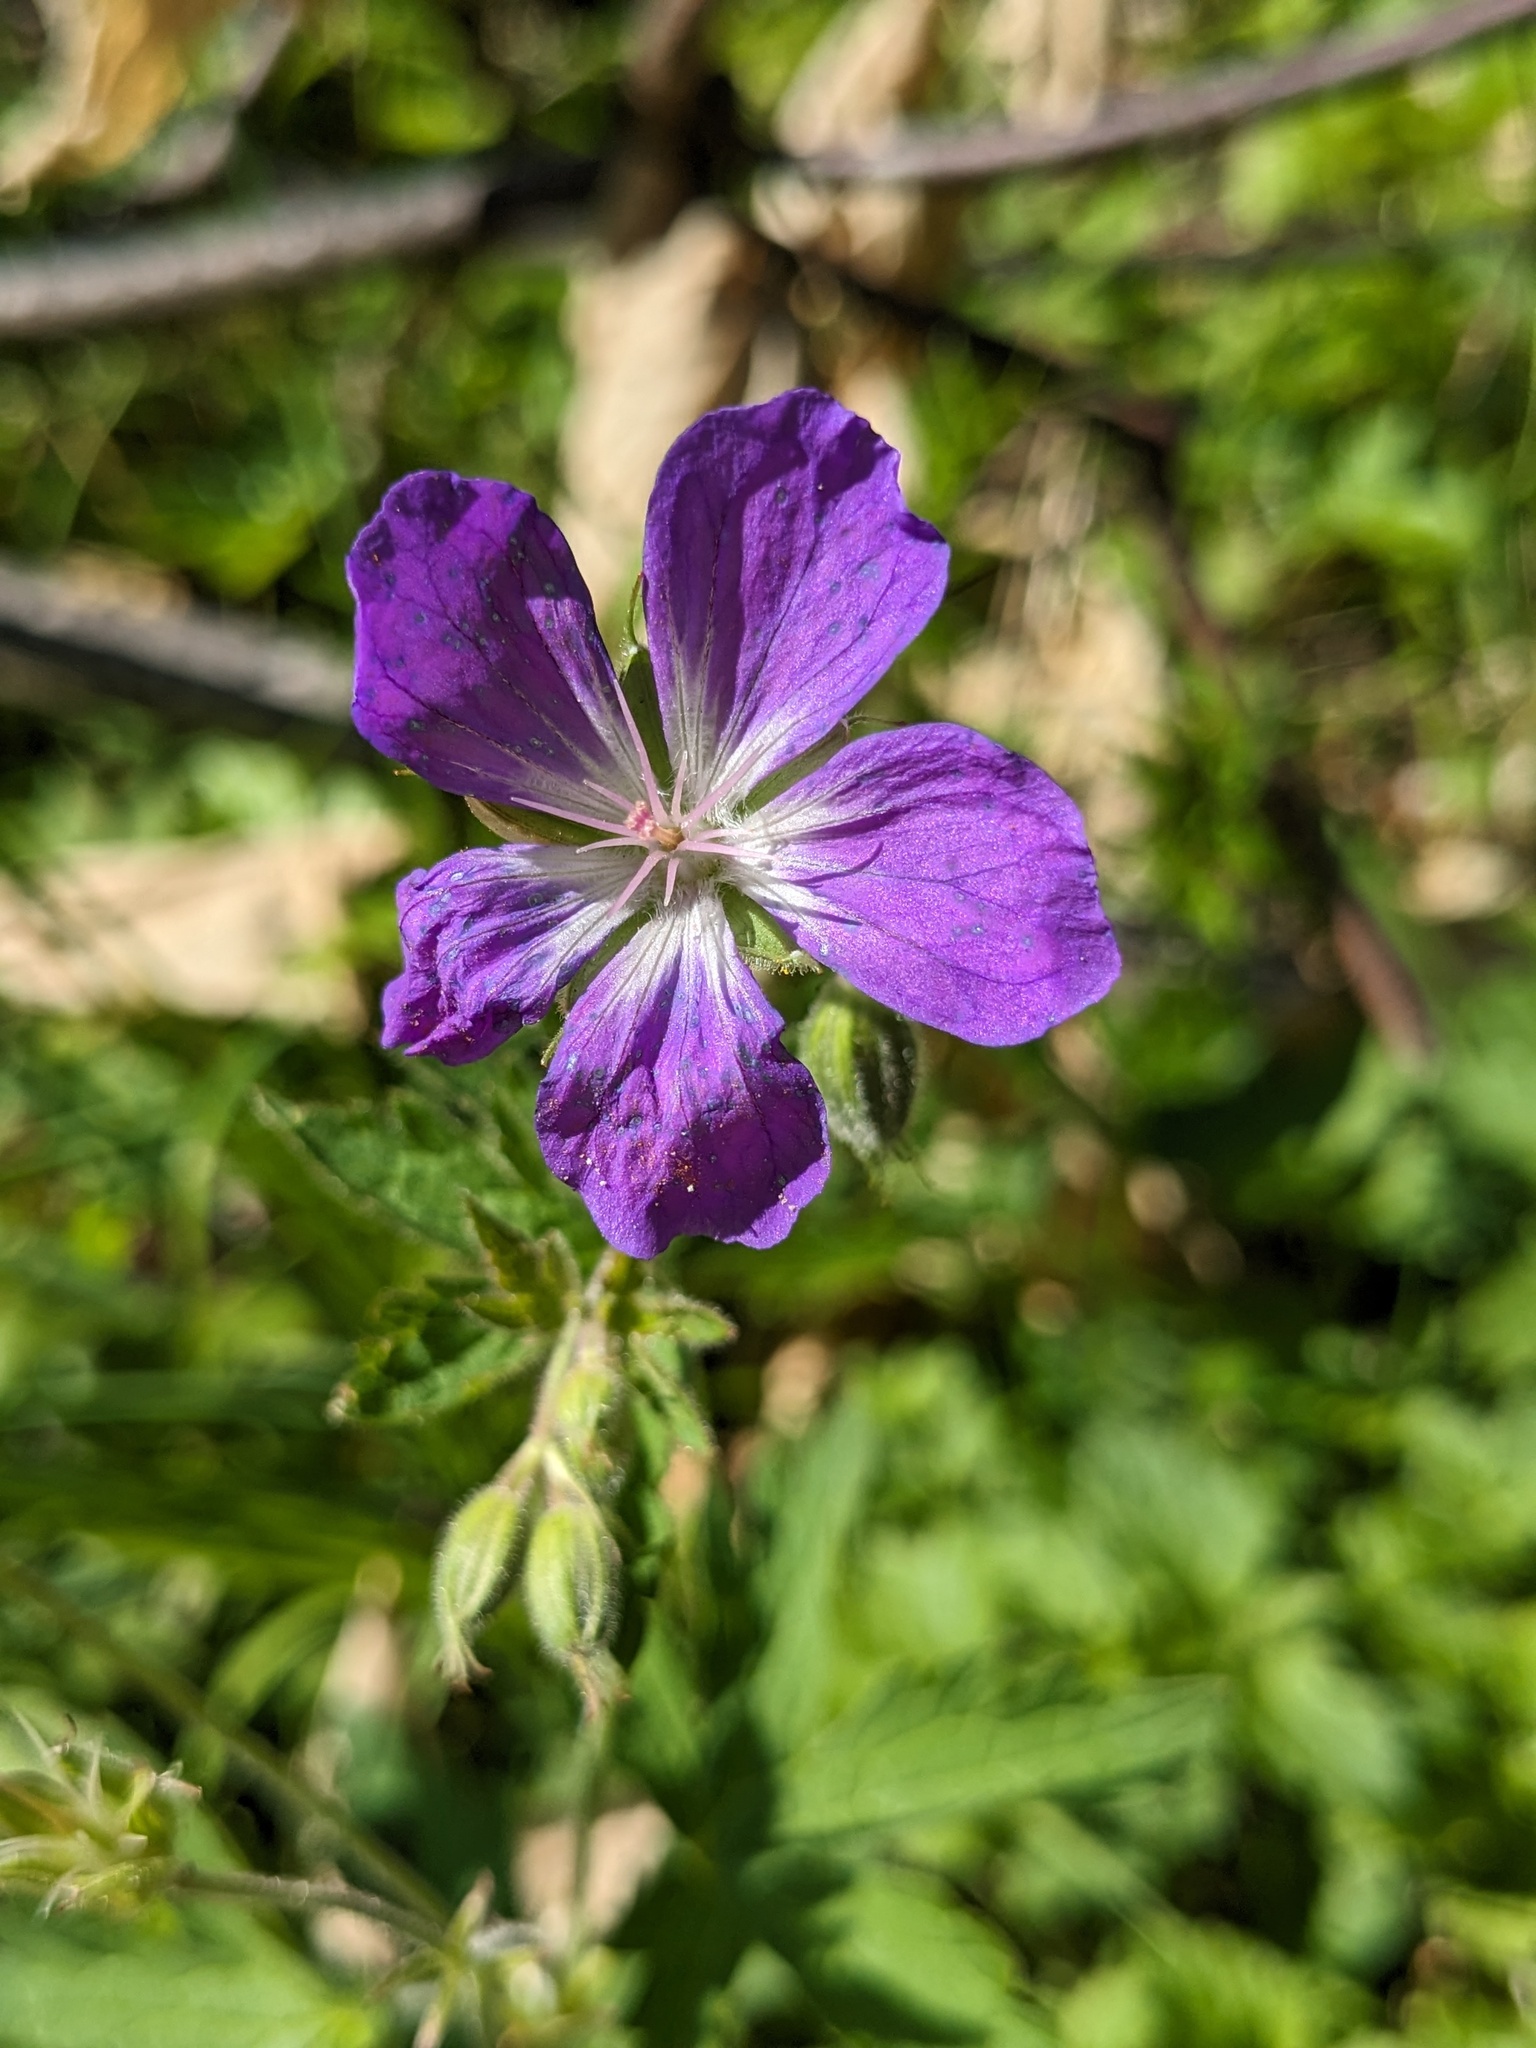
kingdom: Plantae
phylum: Tracheophyta
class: Magnoliopsida
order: Geraniales
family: Geraniaceae
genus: Geranium
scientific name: Geranium sylvaticum
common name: Wood crane's-bill
